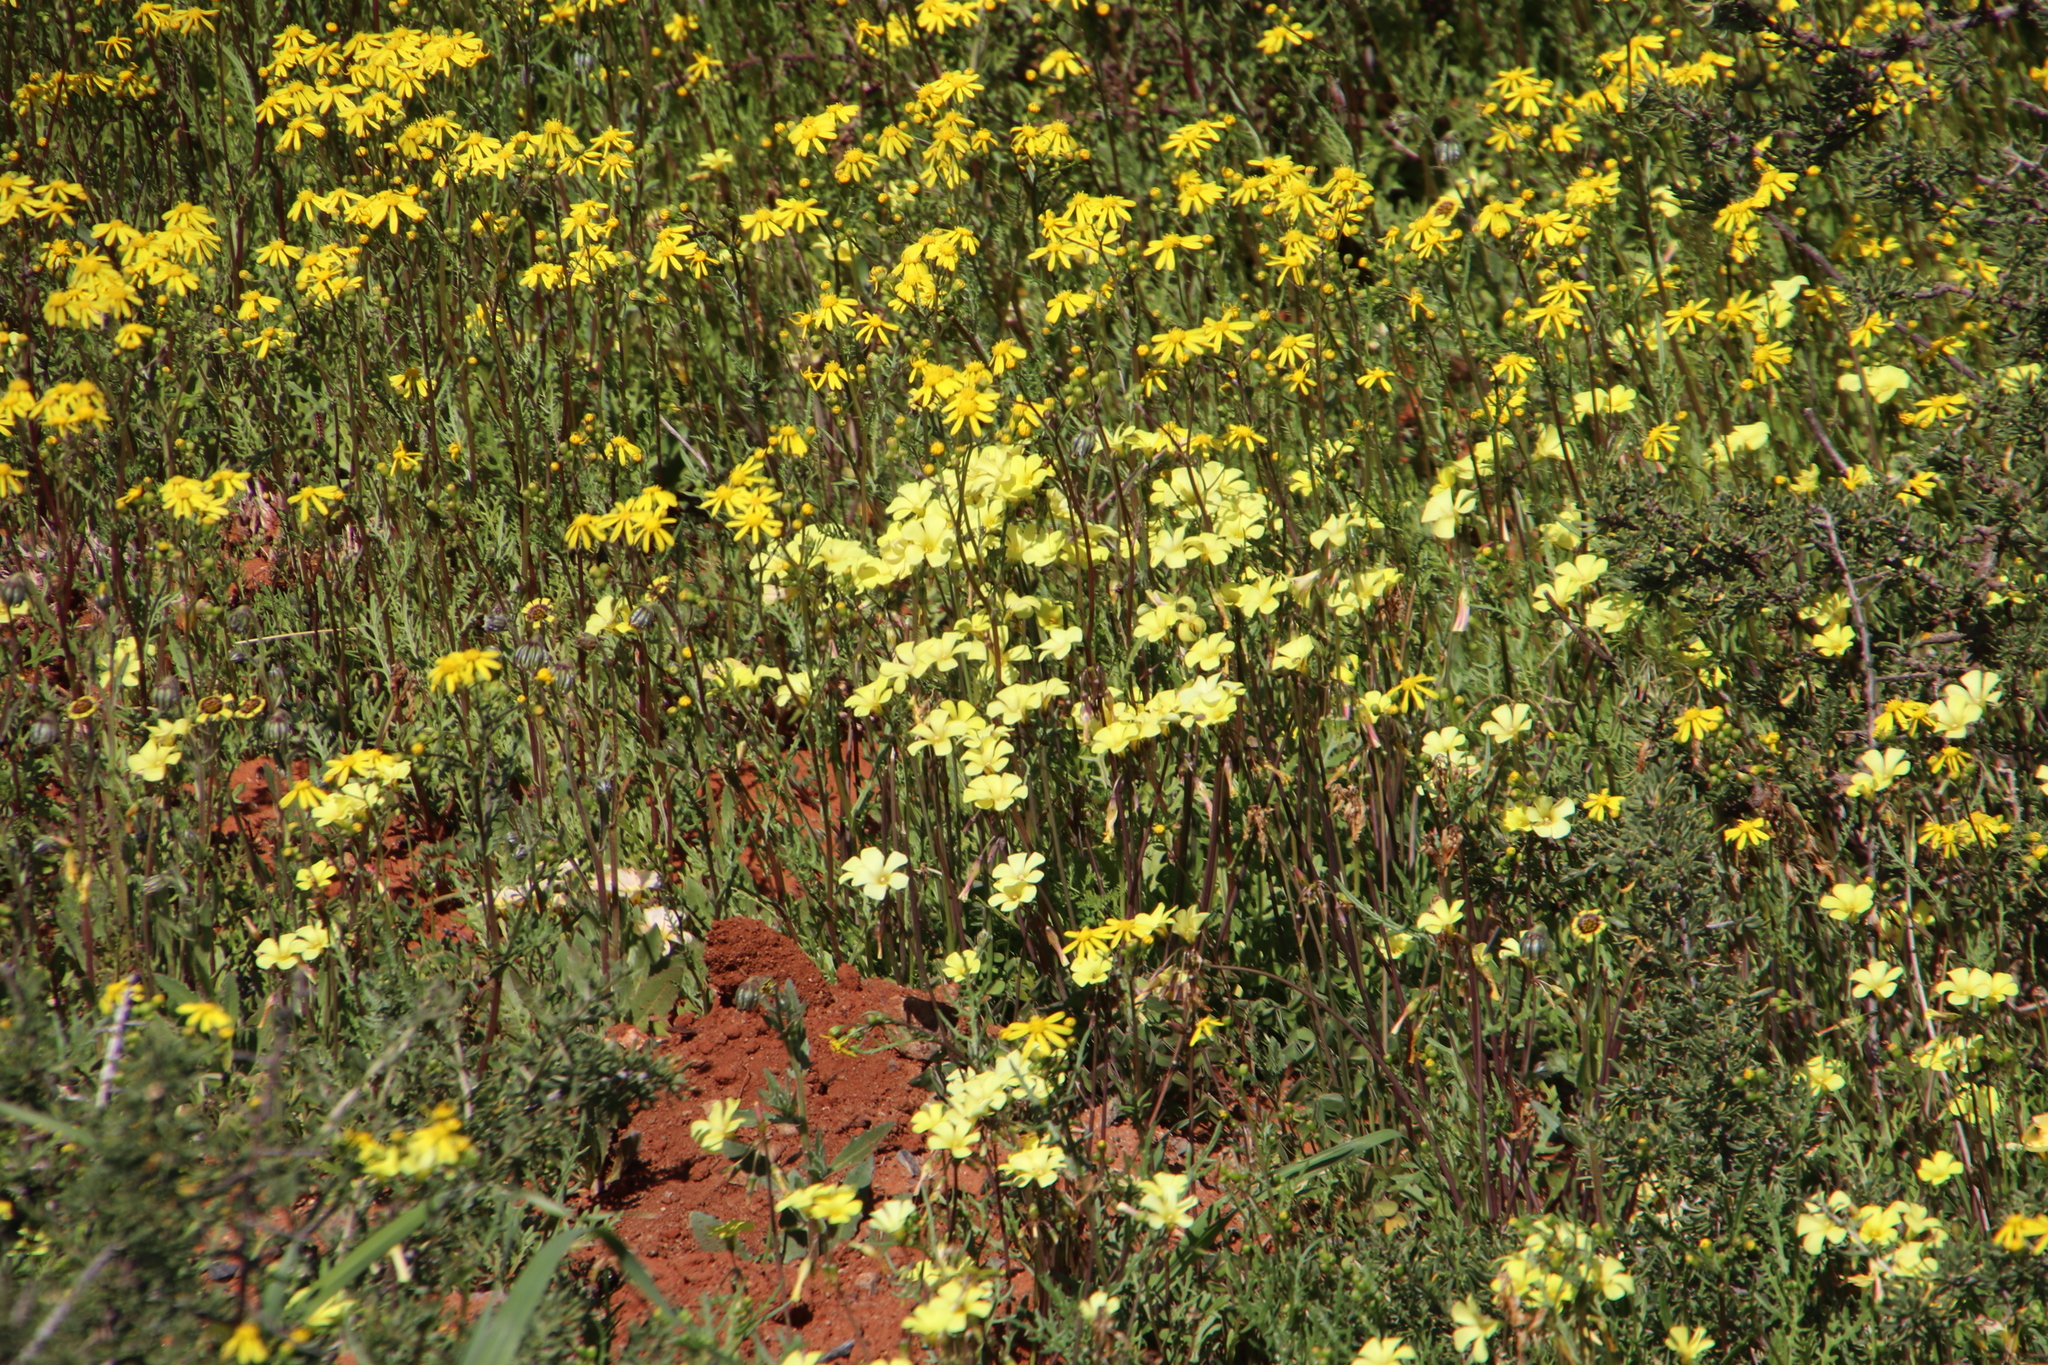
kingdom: Plantae
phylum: Tracheophyta
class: Magnoliopsida
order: Asterales
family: Asteraceae
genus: Senecio
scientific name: Senecio abruptus
